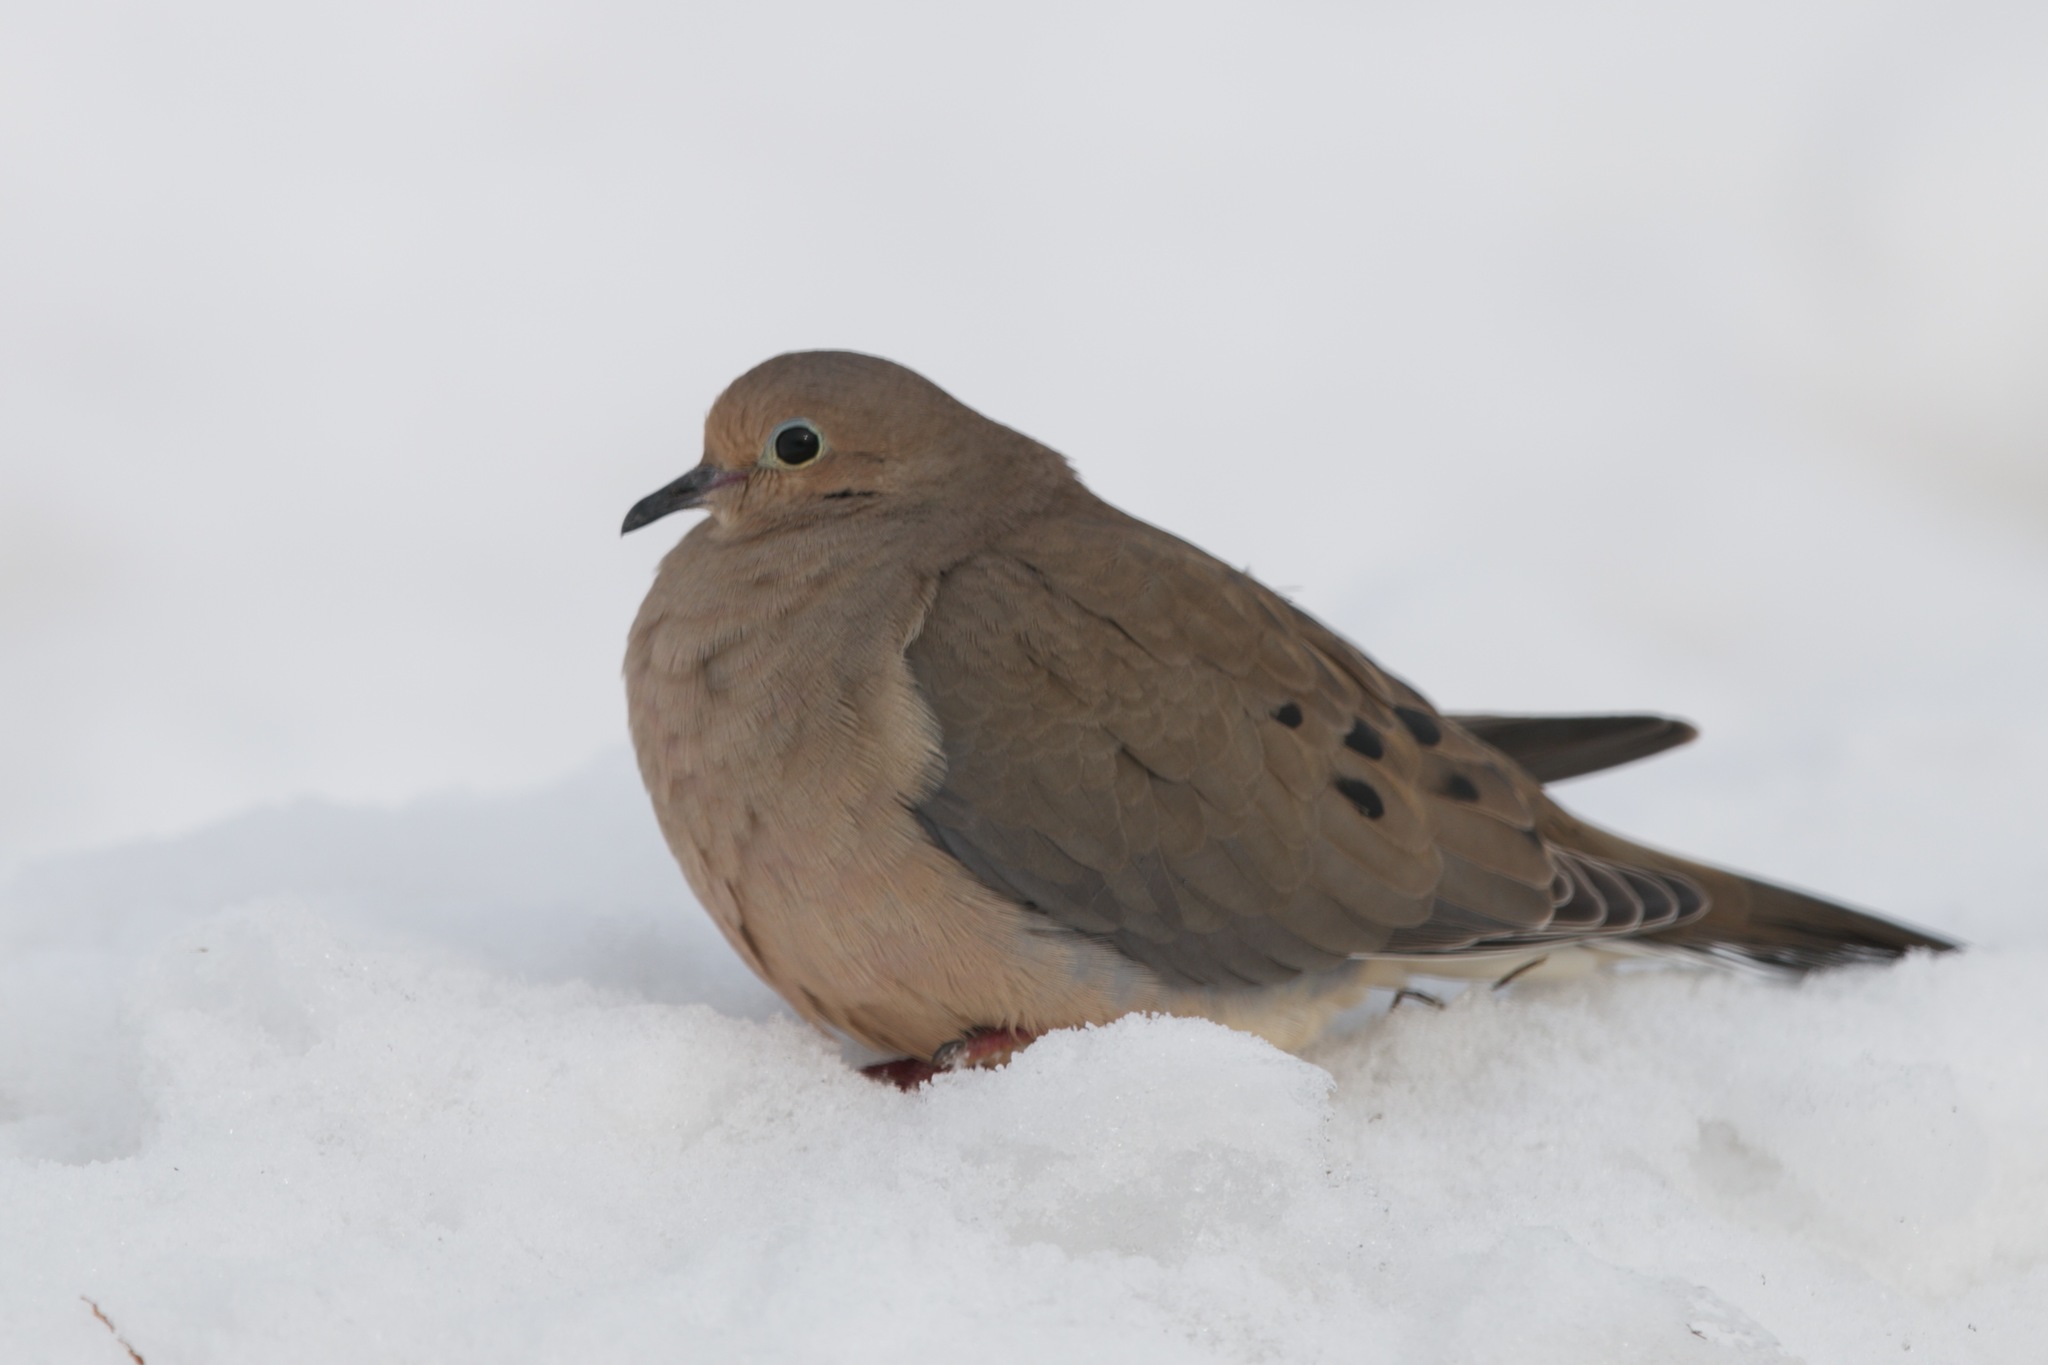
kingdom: Animalia
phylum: Chordata
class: Aves
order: Columbiformes
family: Columbidae
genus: Zenaida
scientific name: Zenaida macroura
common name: Mourning dove
